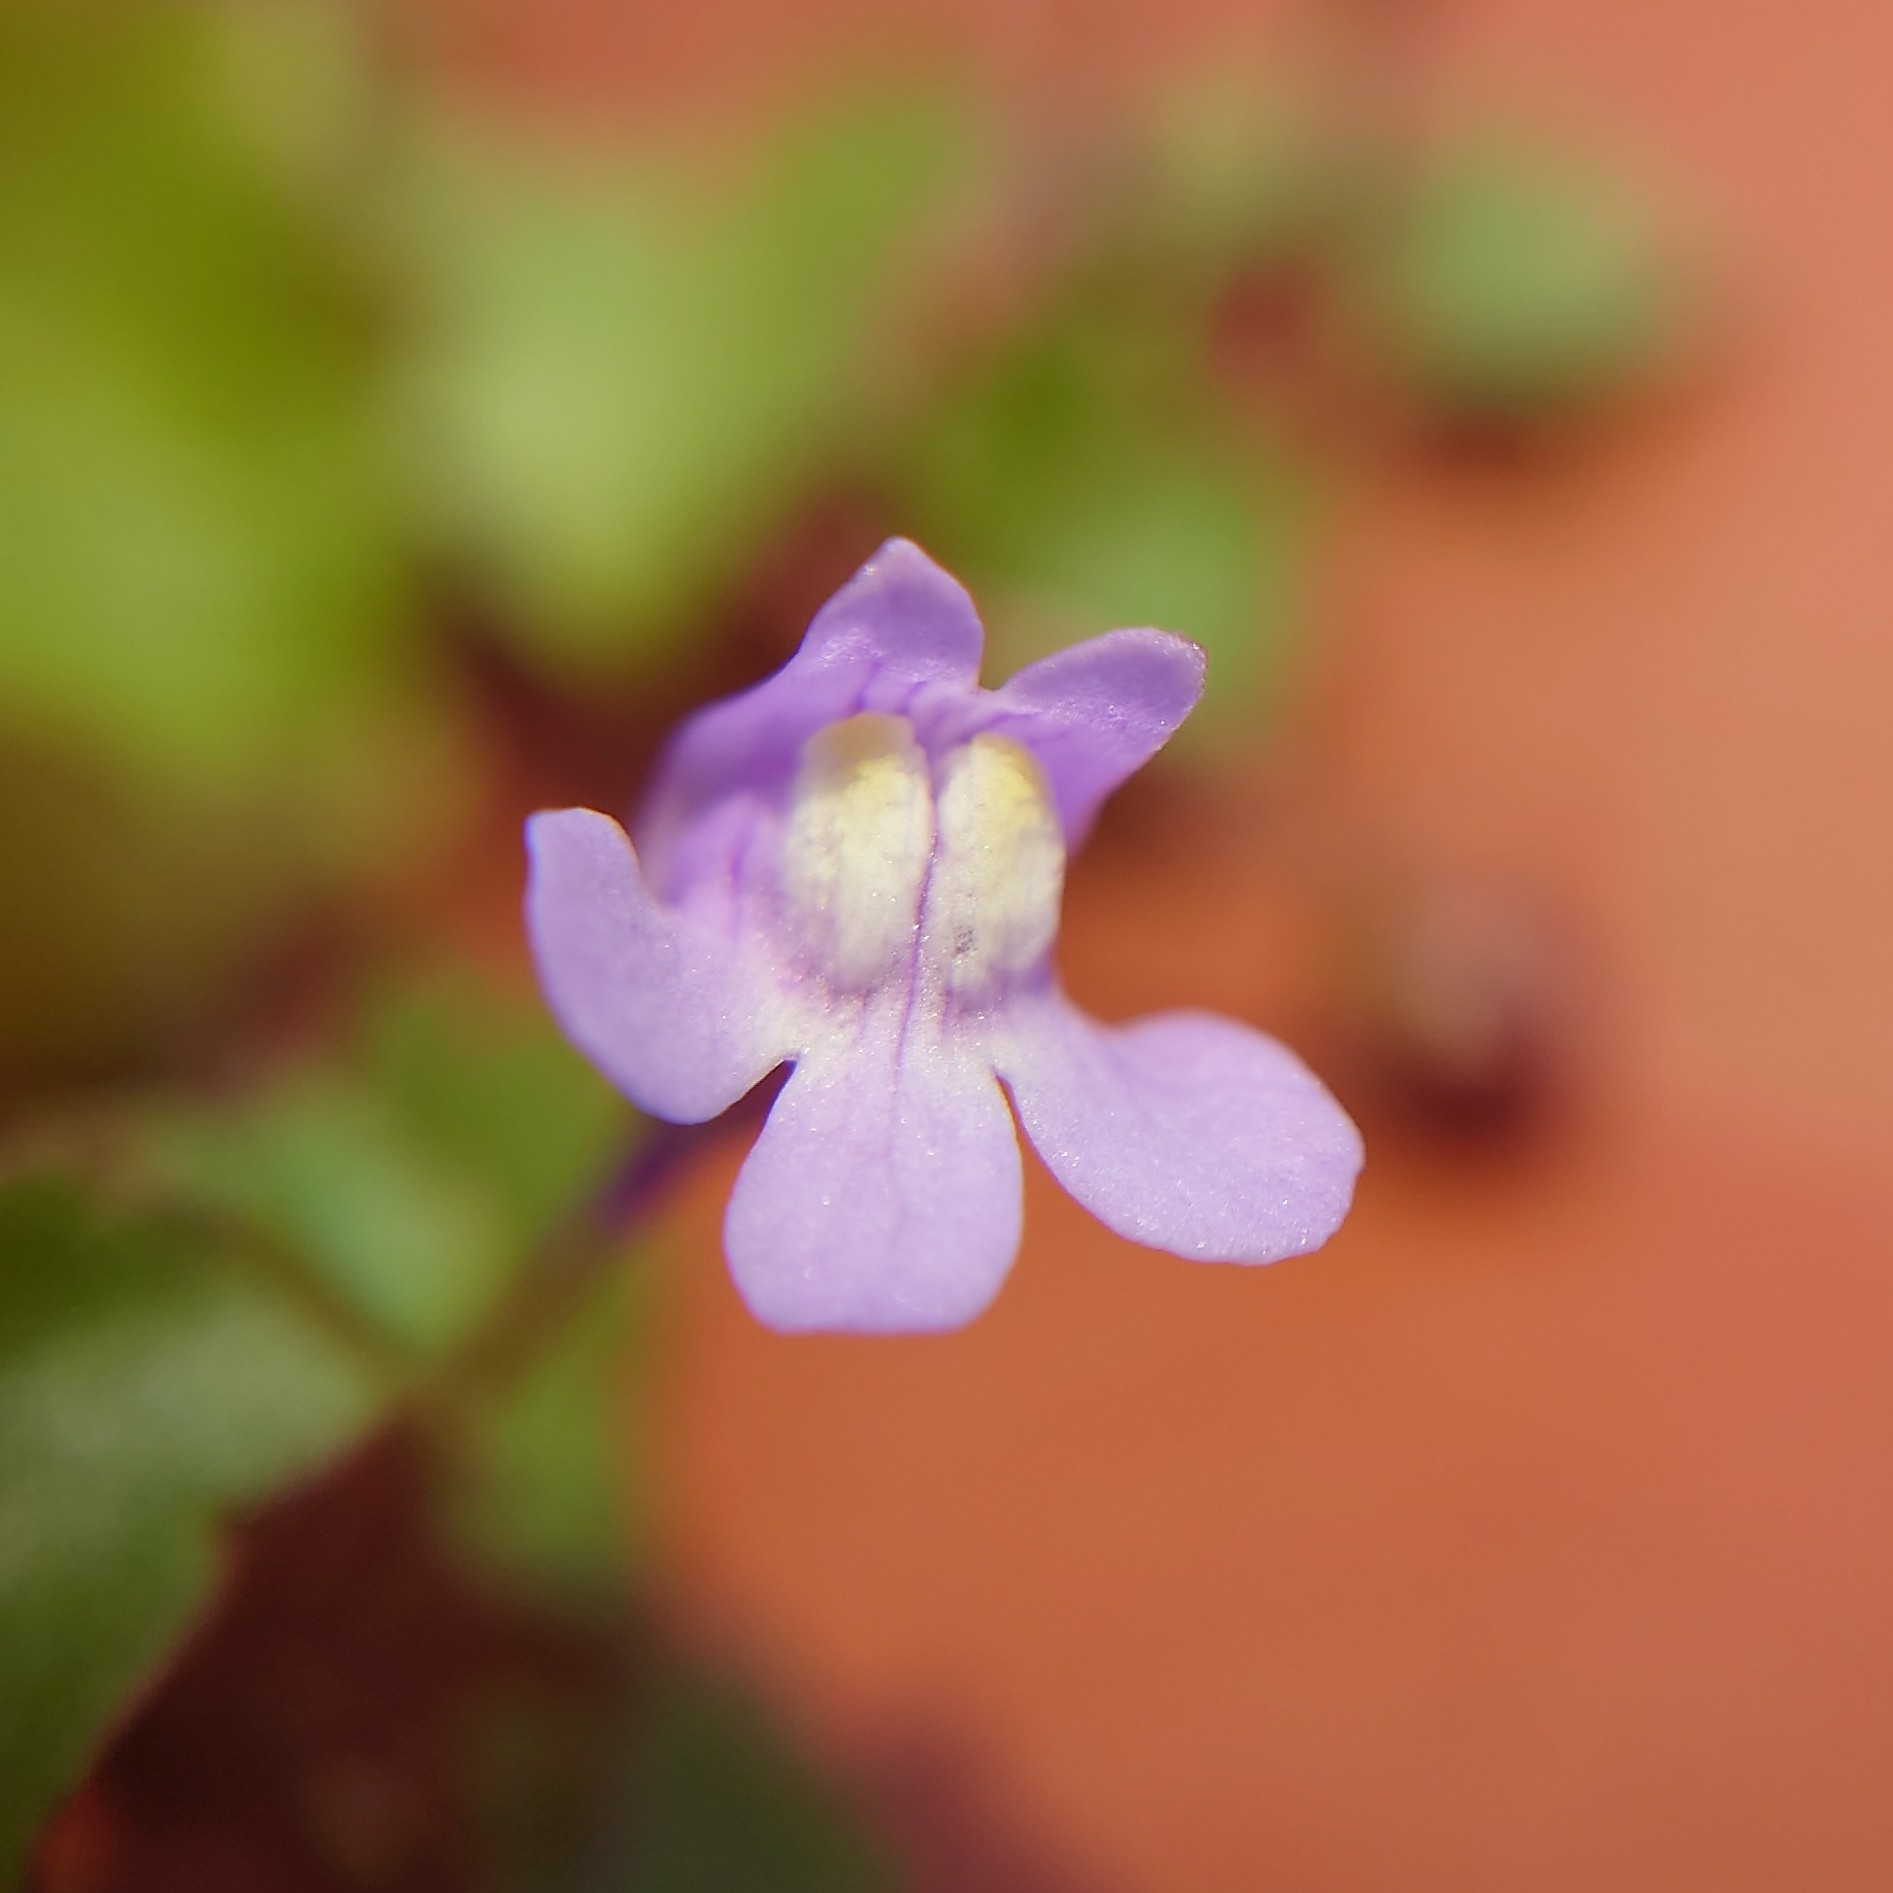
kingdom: Plantae
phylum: Tracheophyta
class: Magnoliopsida
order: Lamiales
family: Plantaginaceae
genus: Cymbalaria
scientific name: Cymbalaria muralis
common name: Ivy-leaved toadflax
